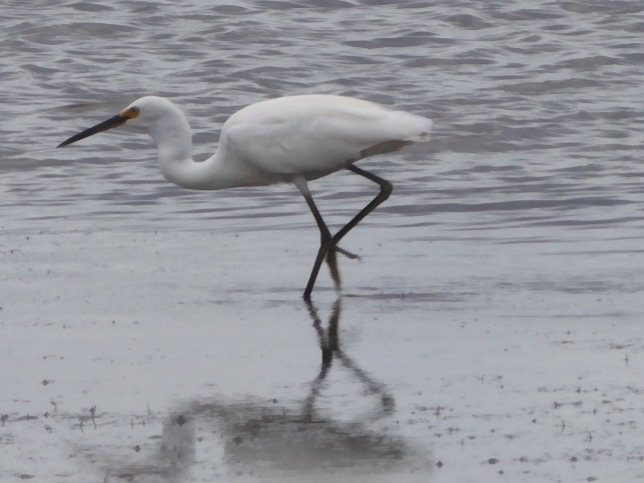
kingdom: Animalia
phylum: Chordata
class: Aves
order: Pelecaniformes
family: Ardeidae
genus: Egretta
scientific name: Egretta garzetta
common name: Little egret
